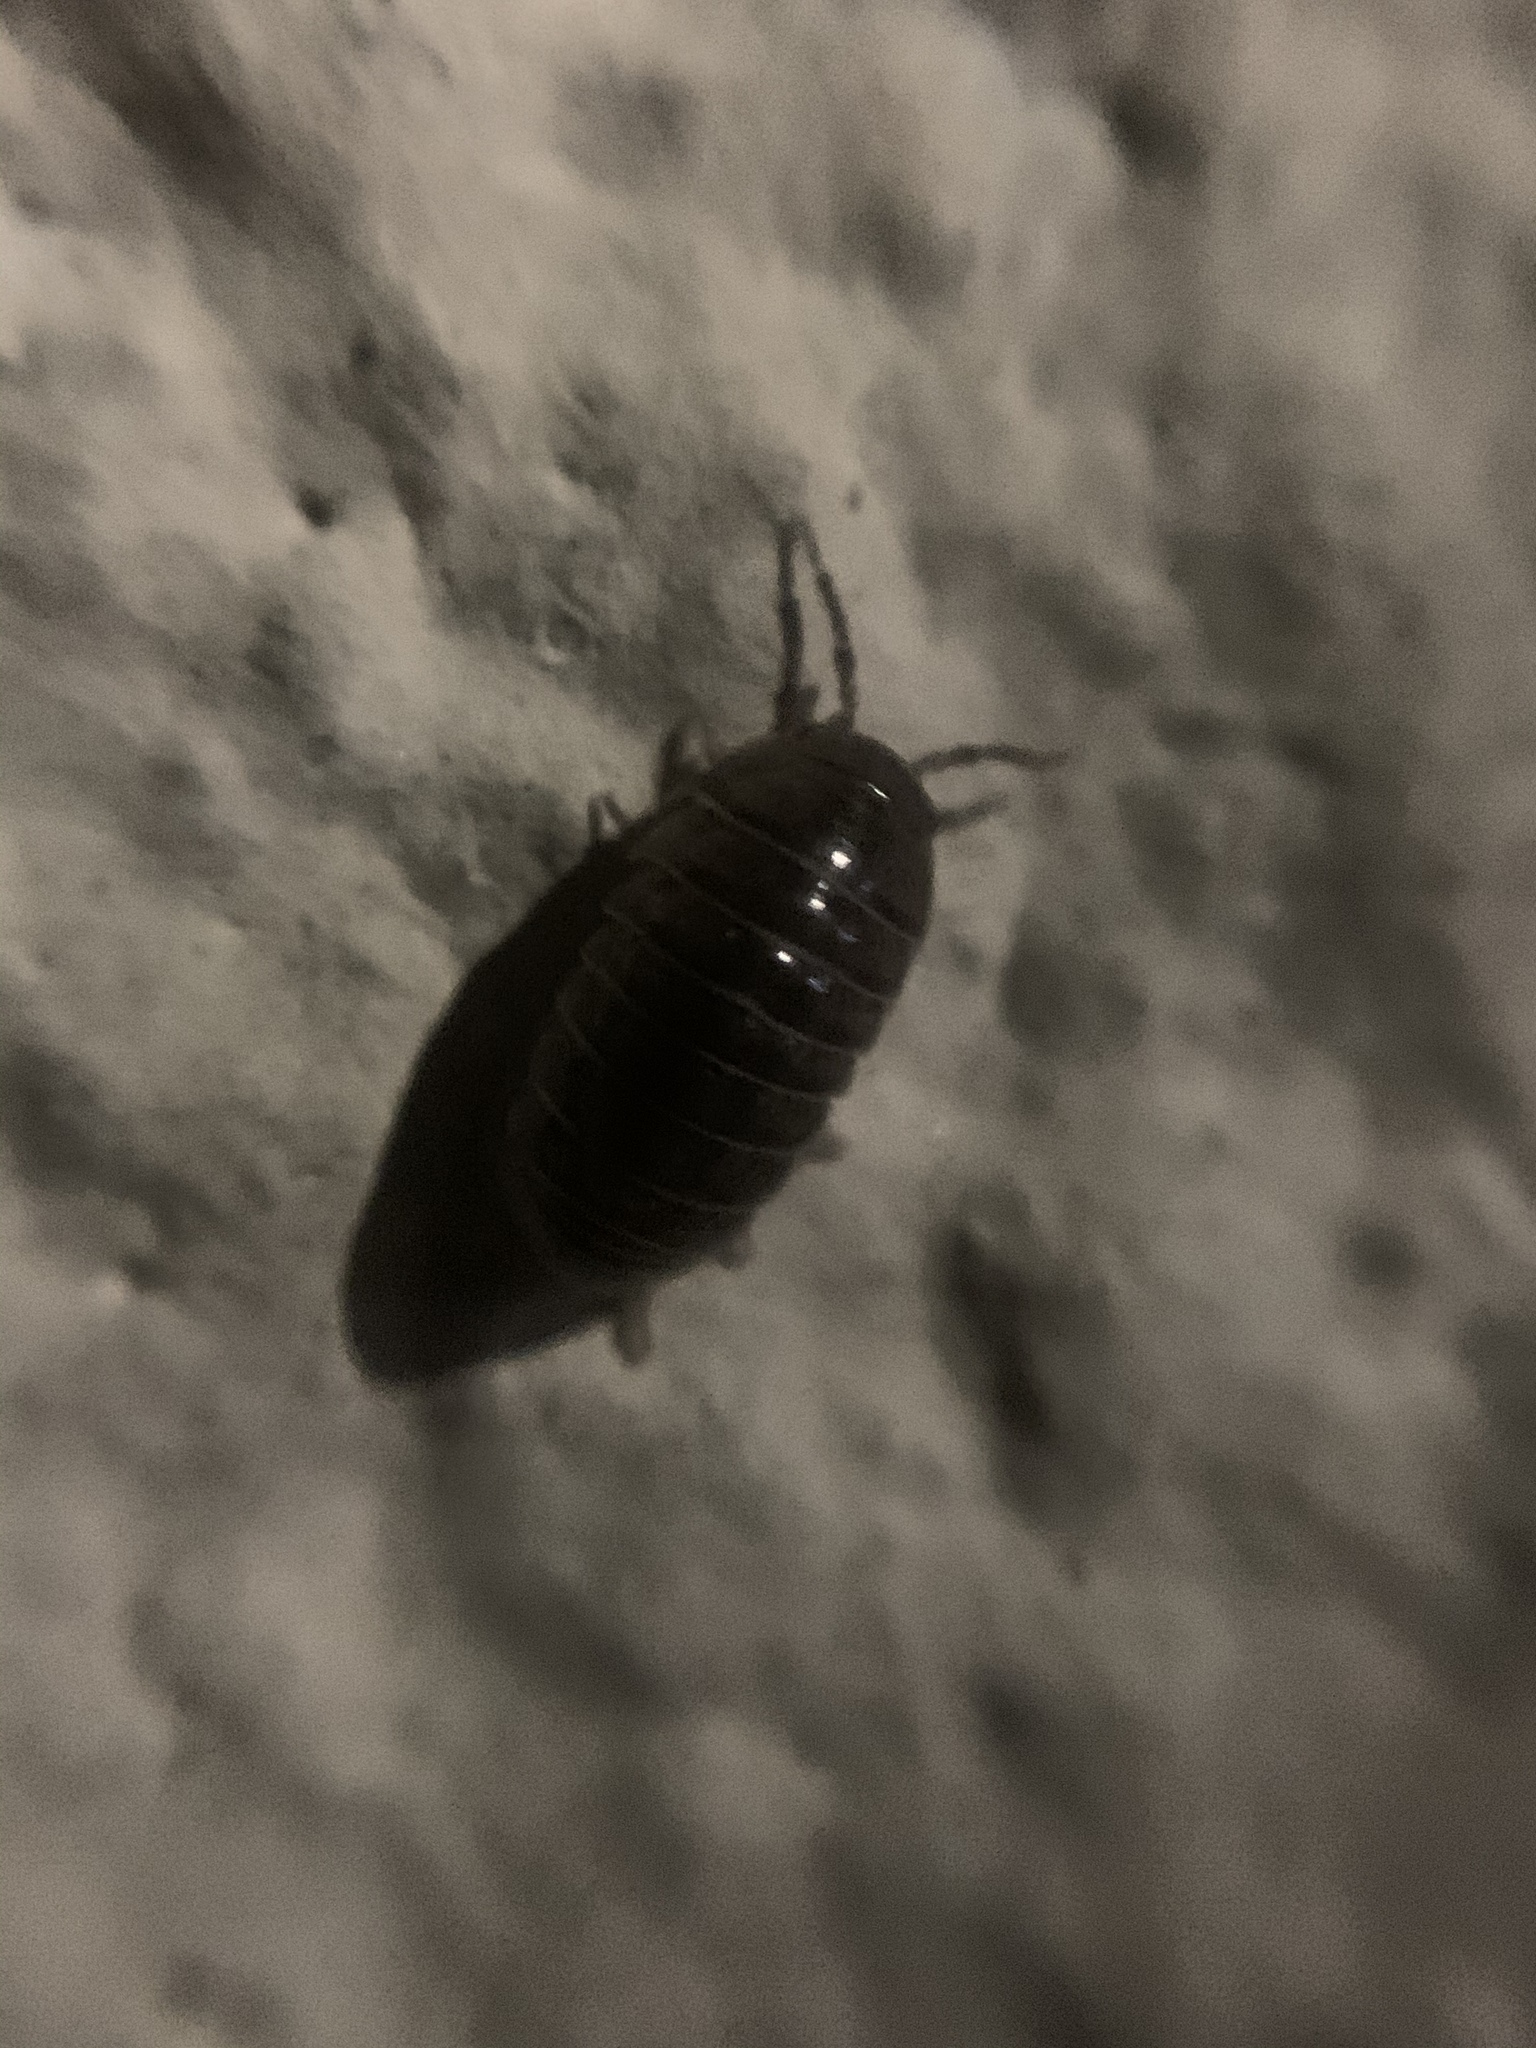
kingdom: Animalia
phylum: Arthropoda
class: Malacostraca
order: Isopoda
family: Armadillidiidae
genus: Armadillidium
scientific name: Armadillidium vulgare
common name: Common pill woodlouse
